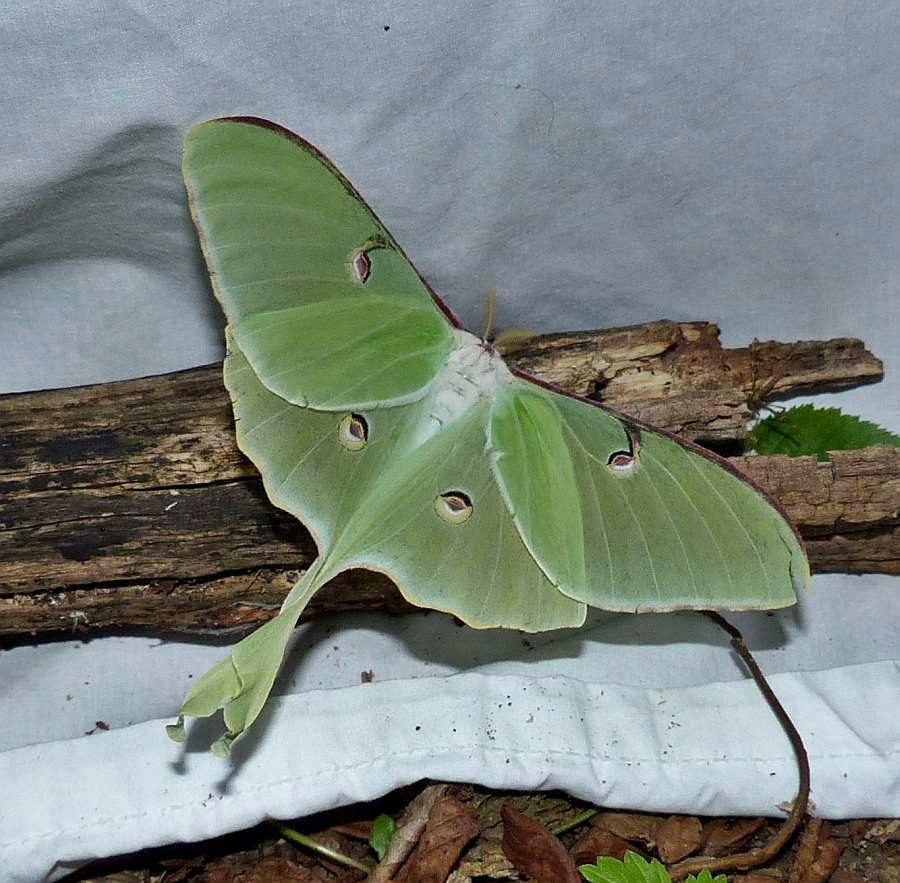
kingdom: Animalia
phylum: Arthropoda
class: Insecta
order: Lepidoptera
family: Saturniidae
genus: Actias
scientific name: Actias luna
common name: Luna moth
